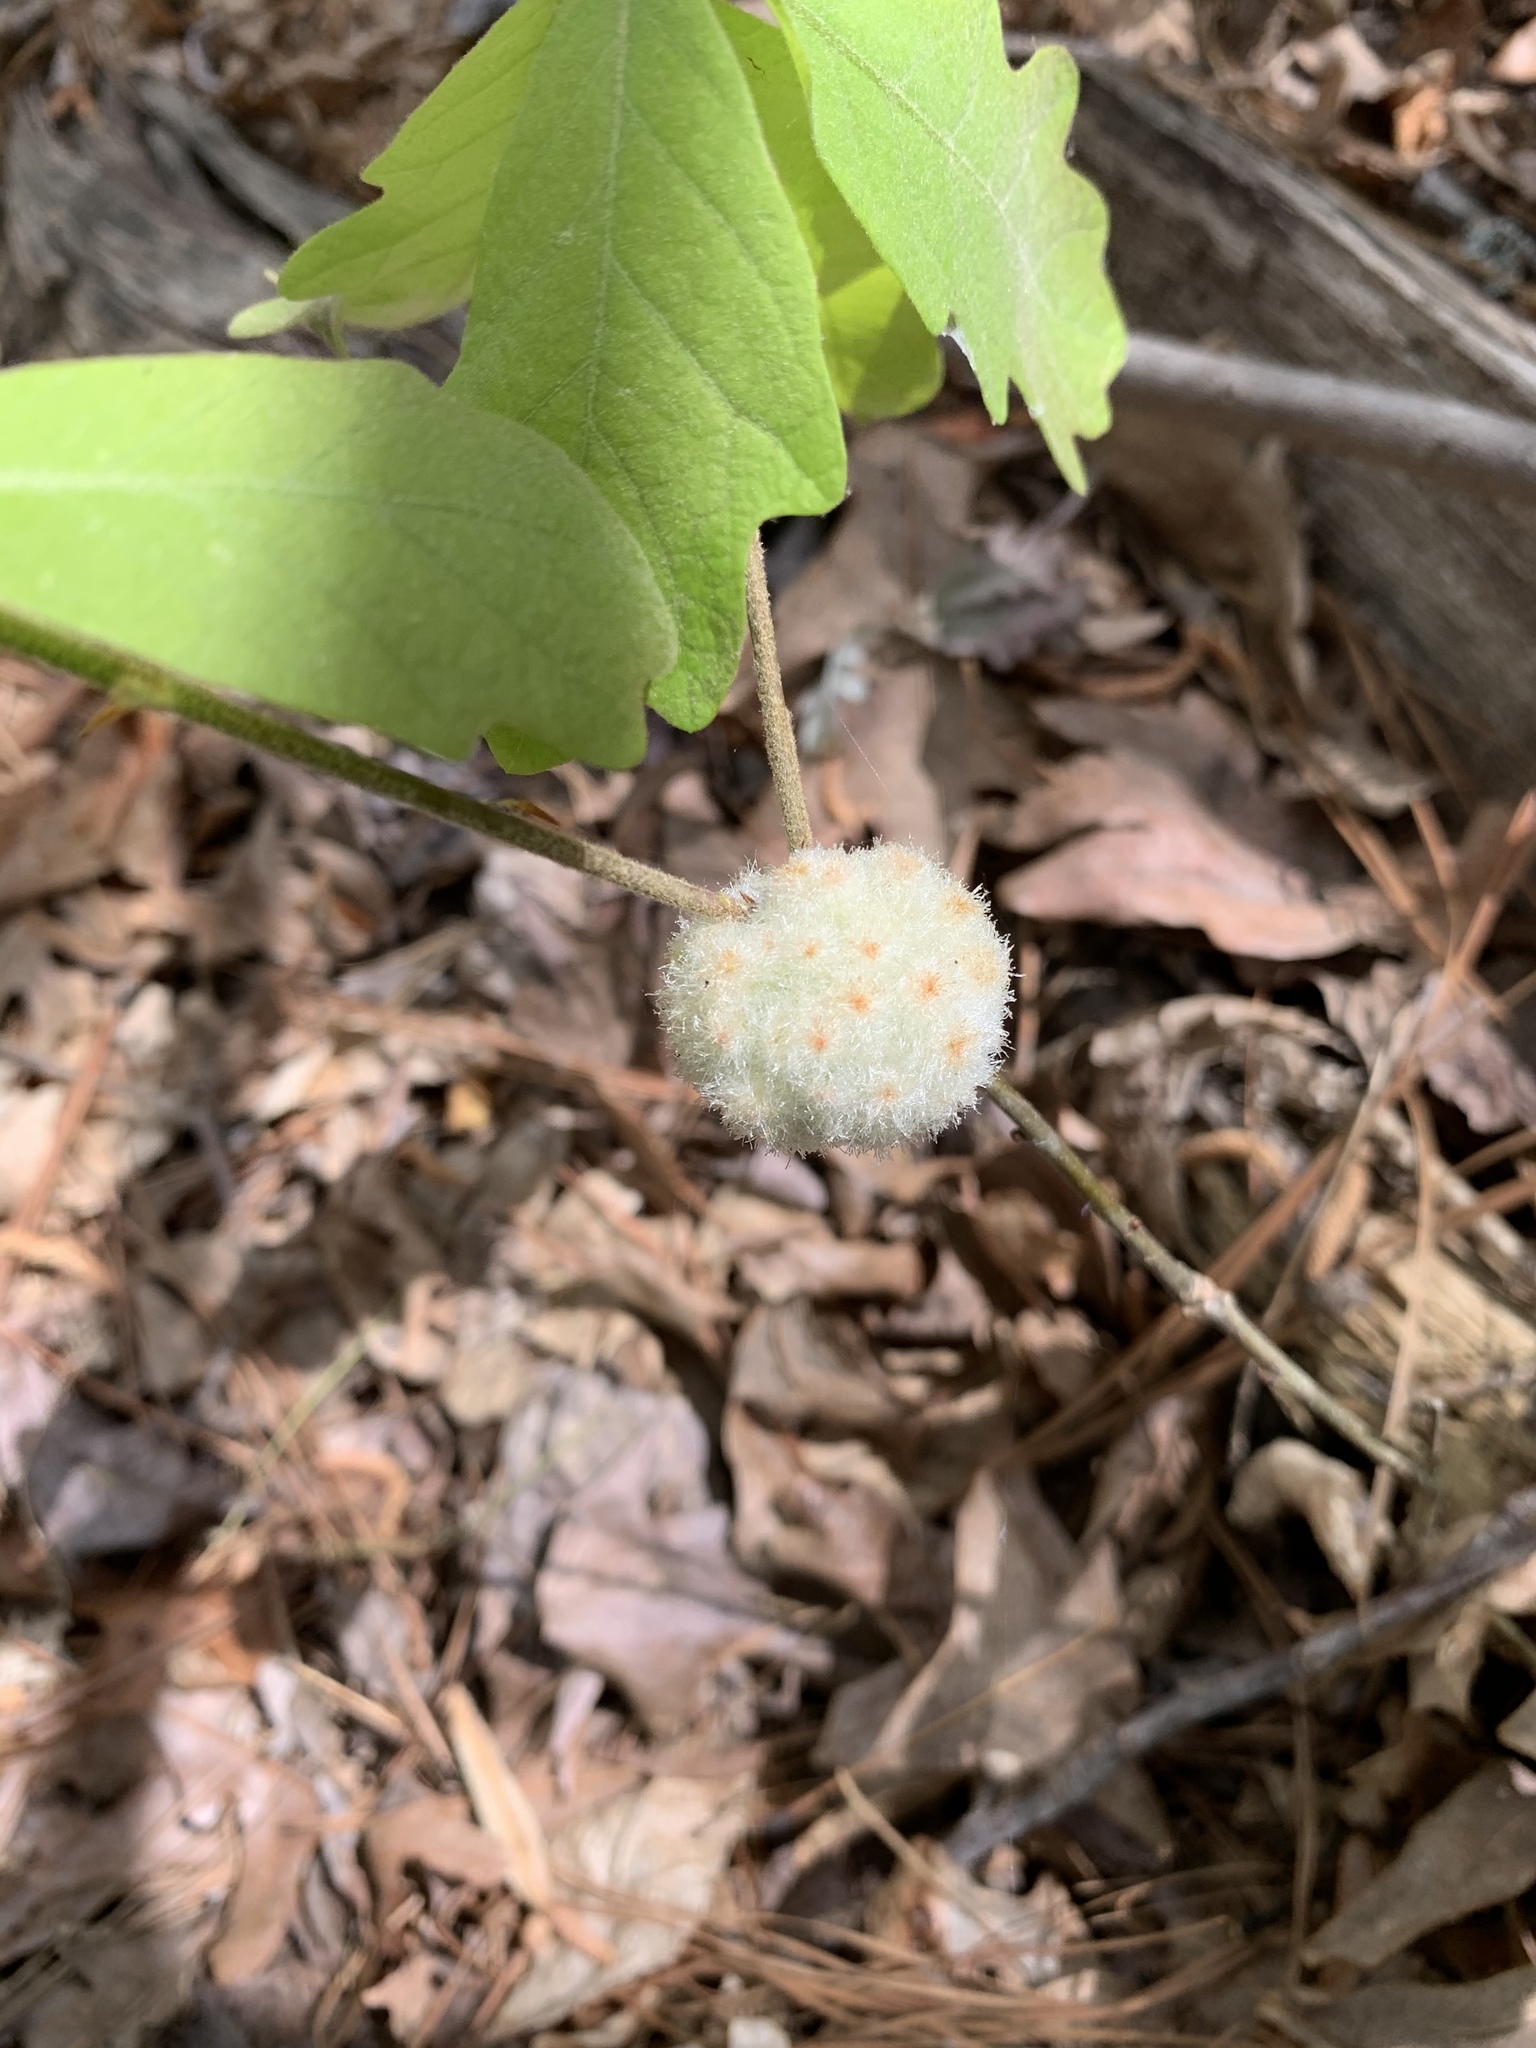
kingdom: Animalia
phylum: Arthropoda
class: Insecta
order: Hymenoptera
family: Cynipidae
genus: Callirhytis
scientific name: Callirhytis
